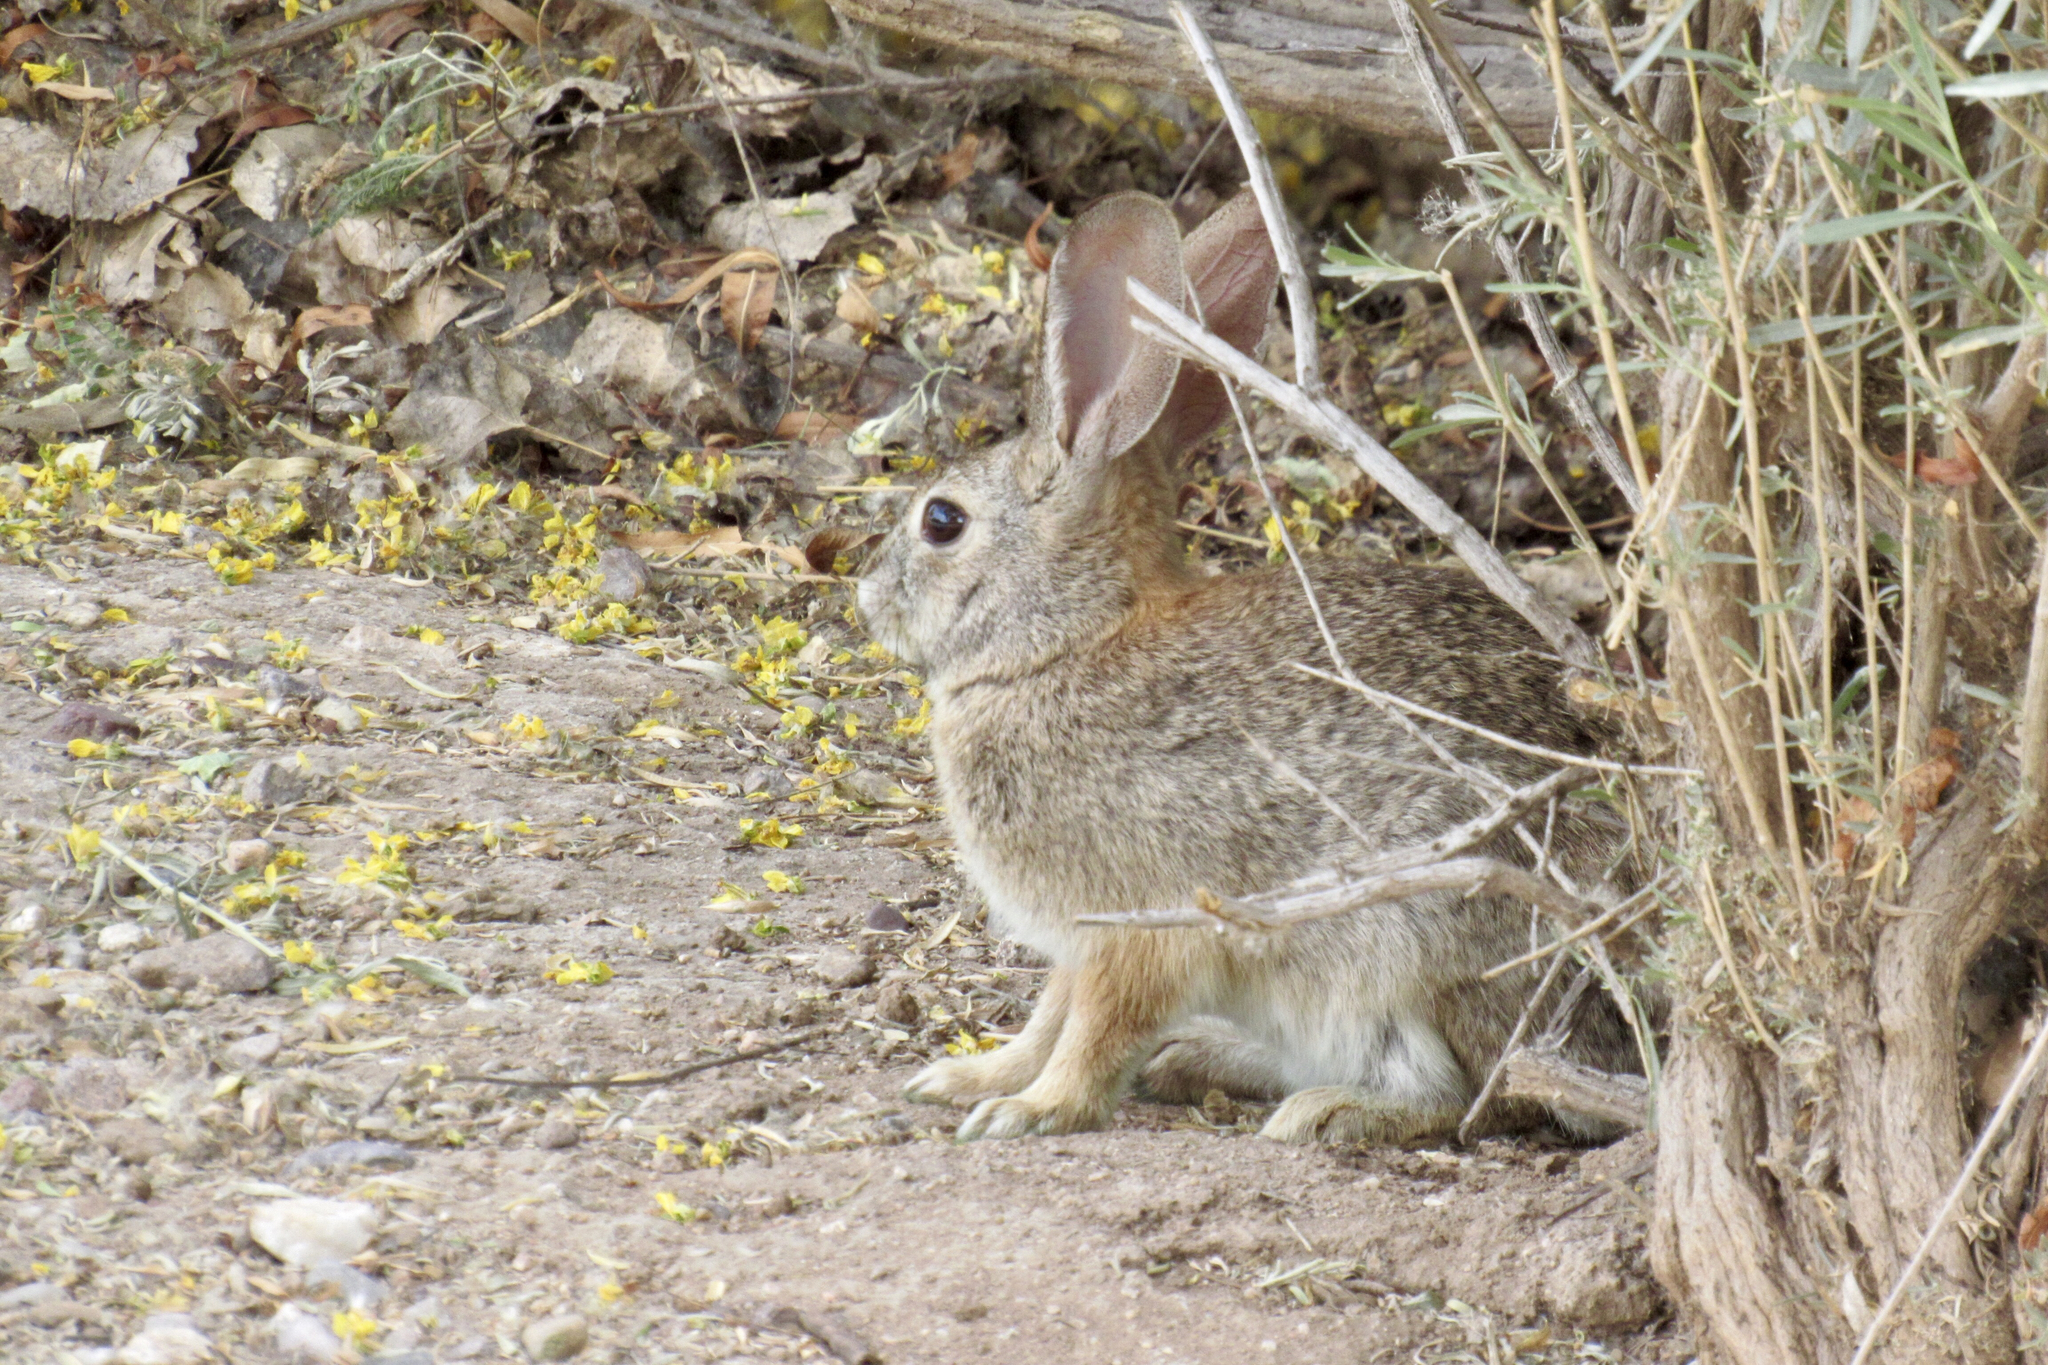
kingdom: Animalia
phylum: Chordata
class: Mammalia
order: Lagomorpha
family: Leporidae
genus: Sylvilagus
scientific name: Sylvilagus audubonii
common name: Desert cottontail
